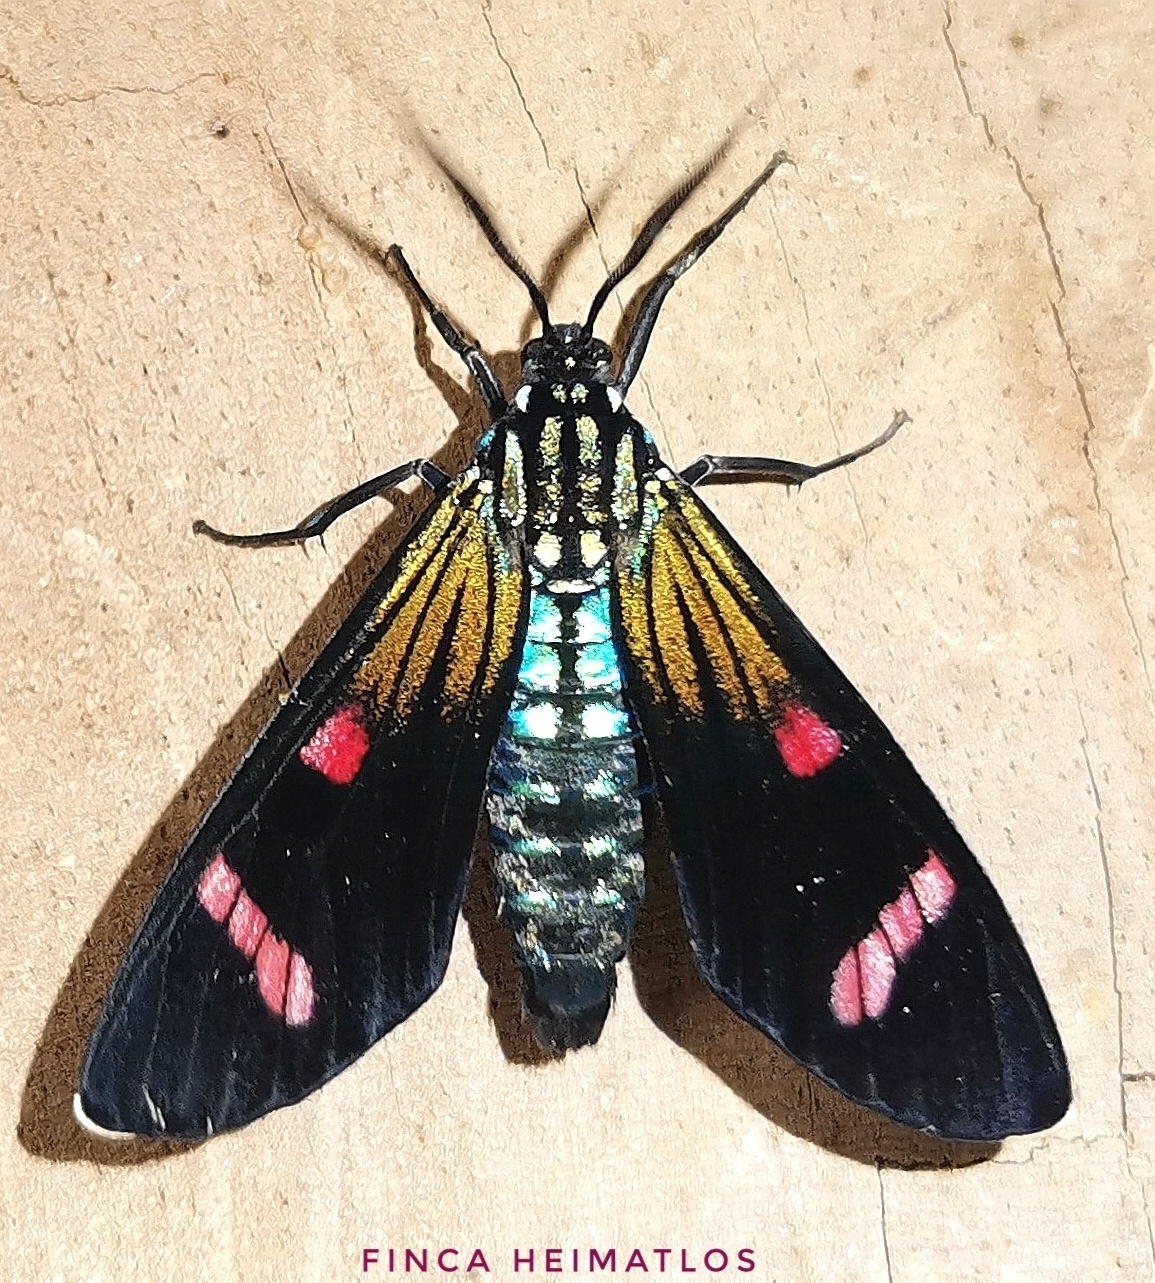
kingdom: Animalia
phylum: Arthropoda
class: Insecta
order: Lepidoptera
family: Erebidae
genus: Diospage
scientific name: Diospage splendens
